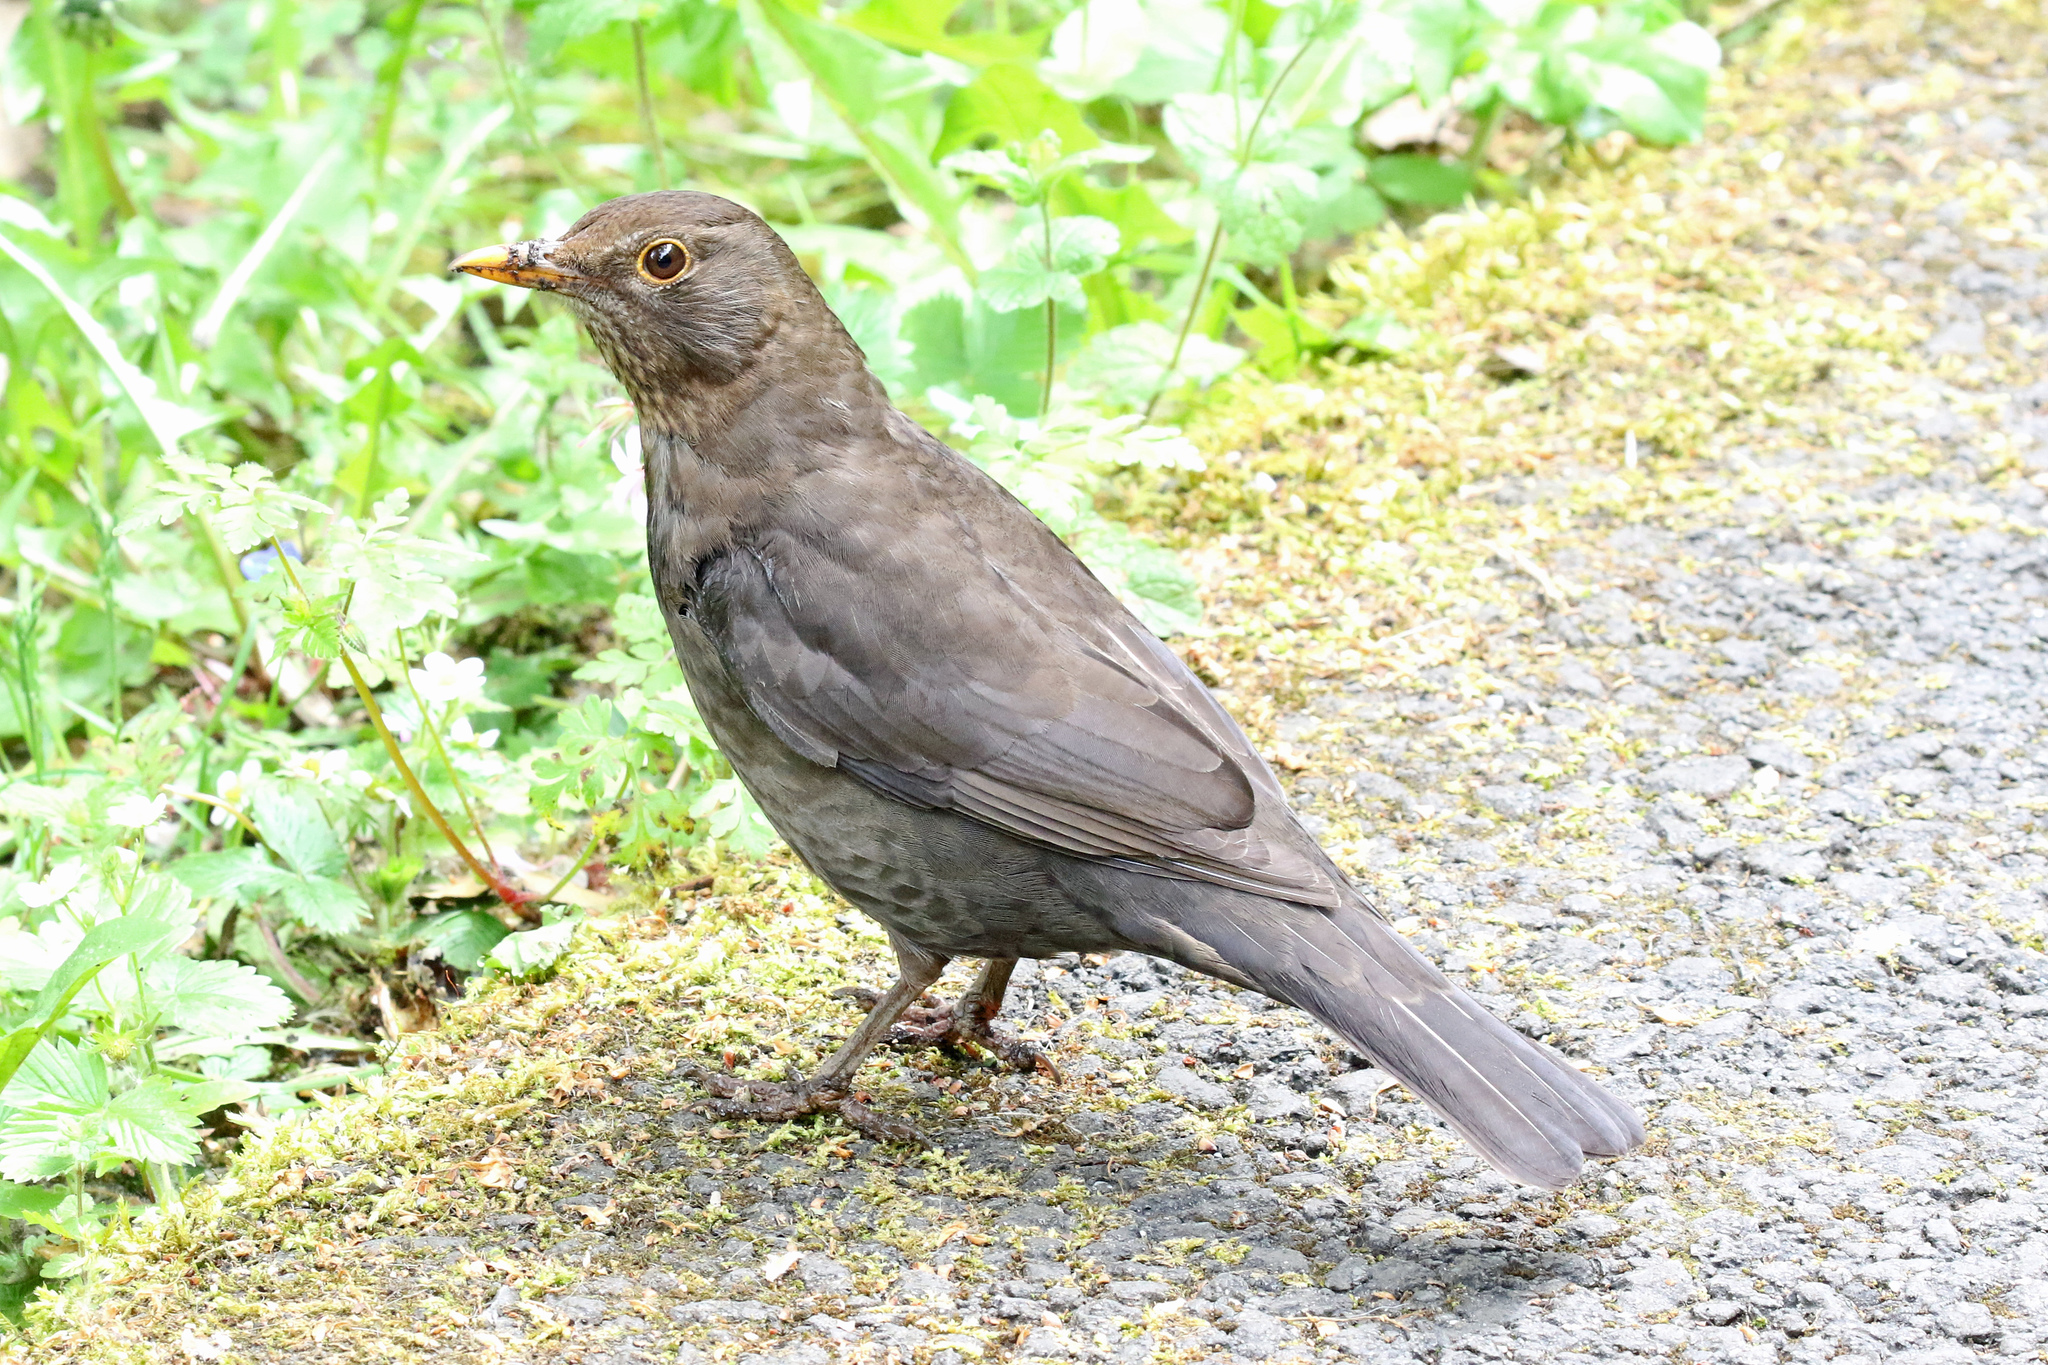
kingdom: Animalia
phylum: Chordata
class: Aves
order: Passeriformes
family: Turdidae
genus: Turdus
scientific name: Turdus merula
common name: Common blackbird
